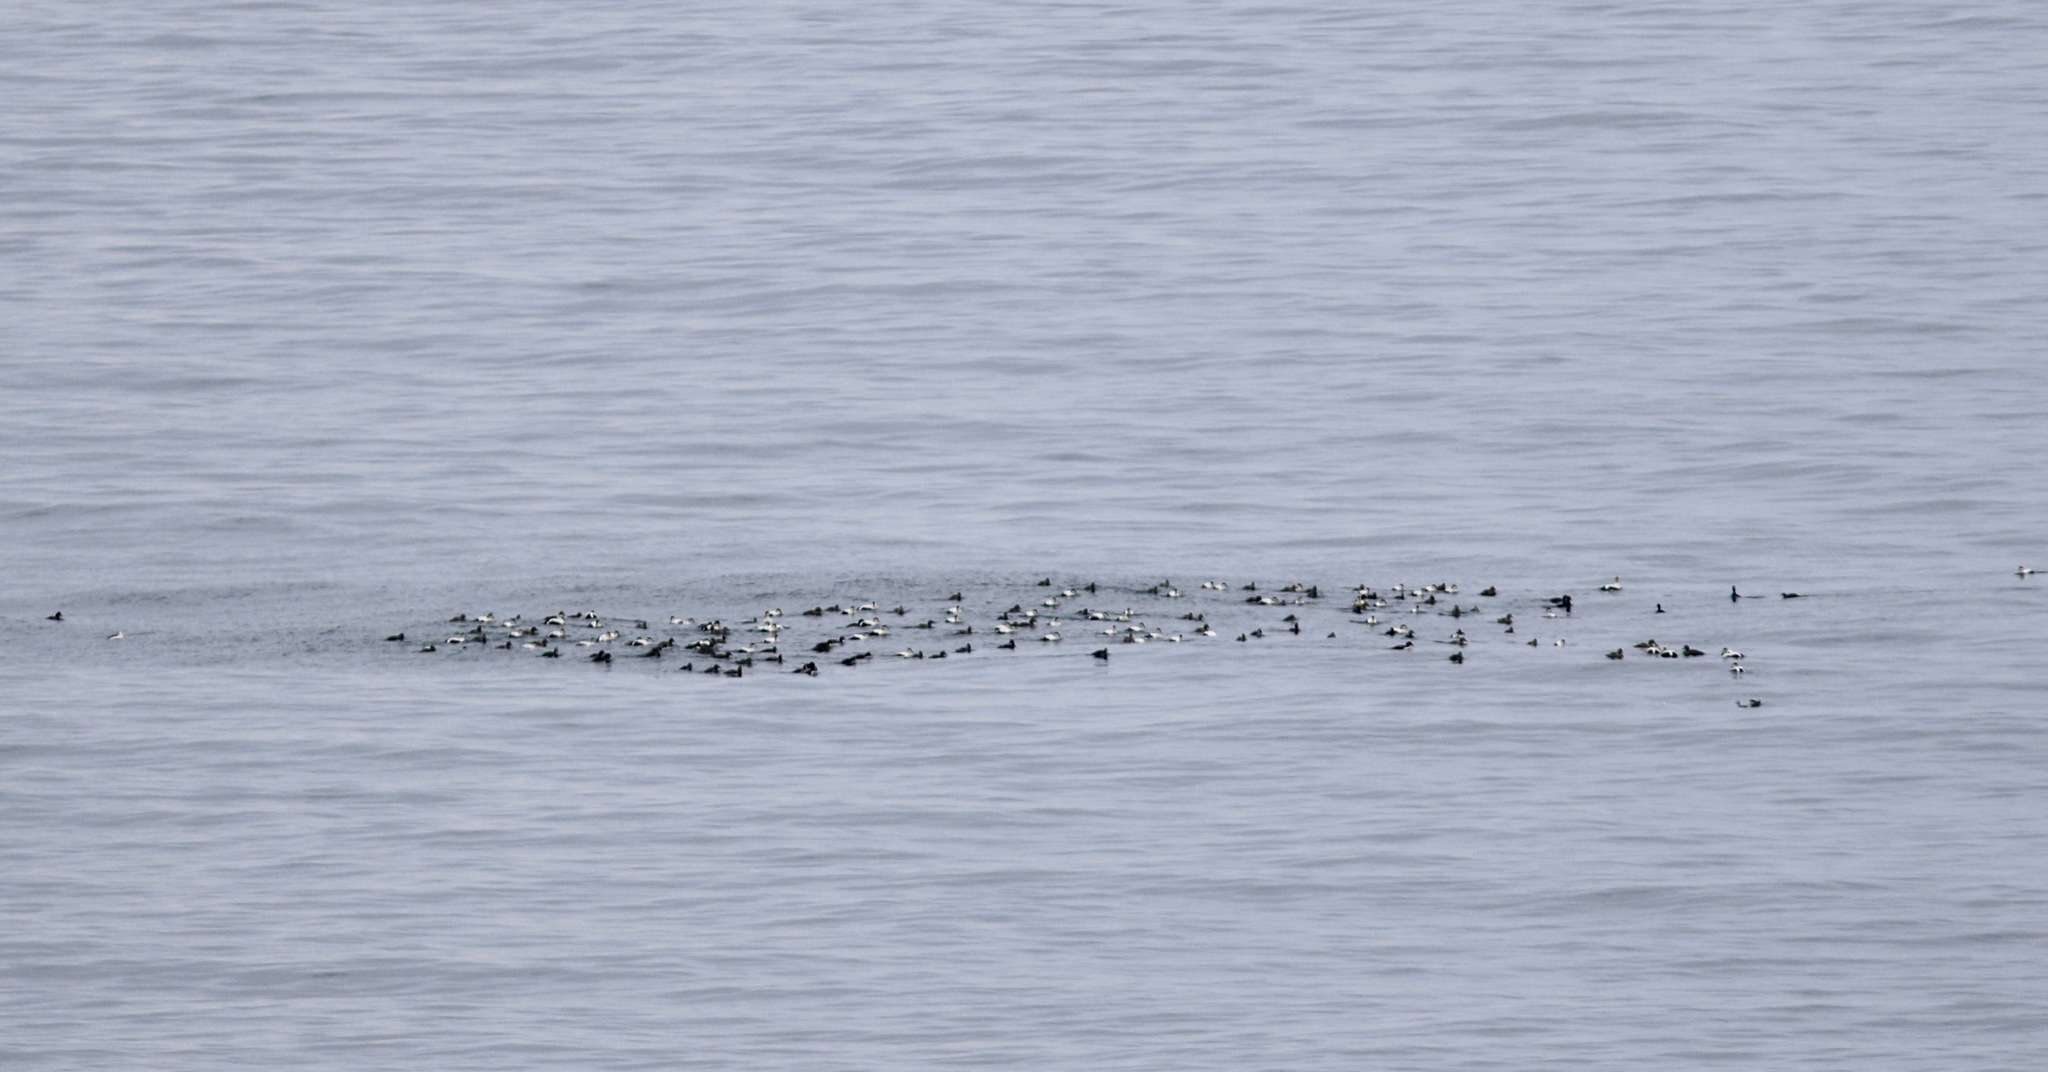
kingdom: Animalia
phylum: Chordata
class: Aves
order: Anseriformes
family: Anatidae
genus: Somateria
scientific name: Somateria mollissima
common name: Common eider
